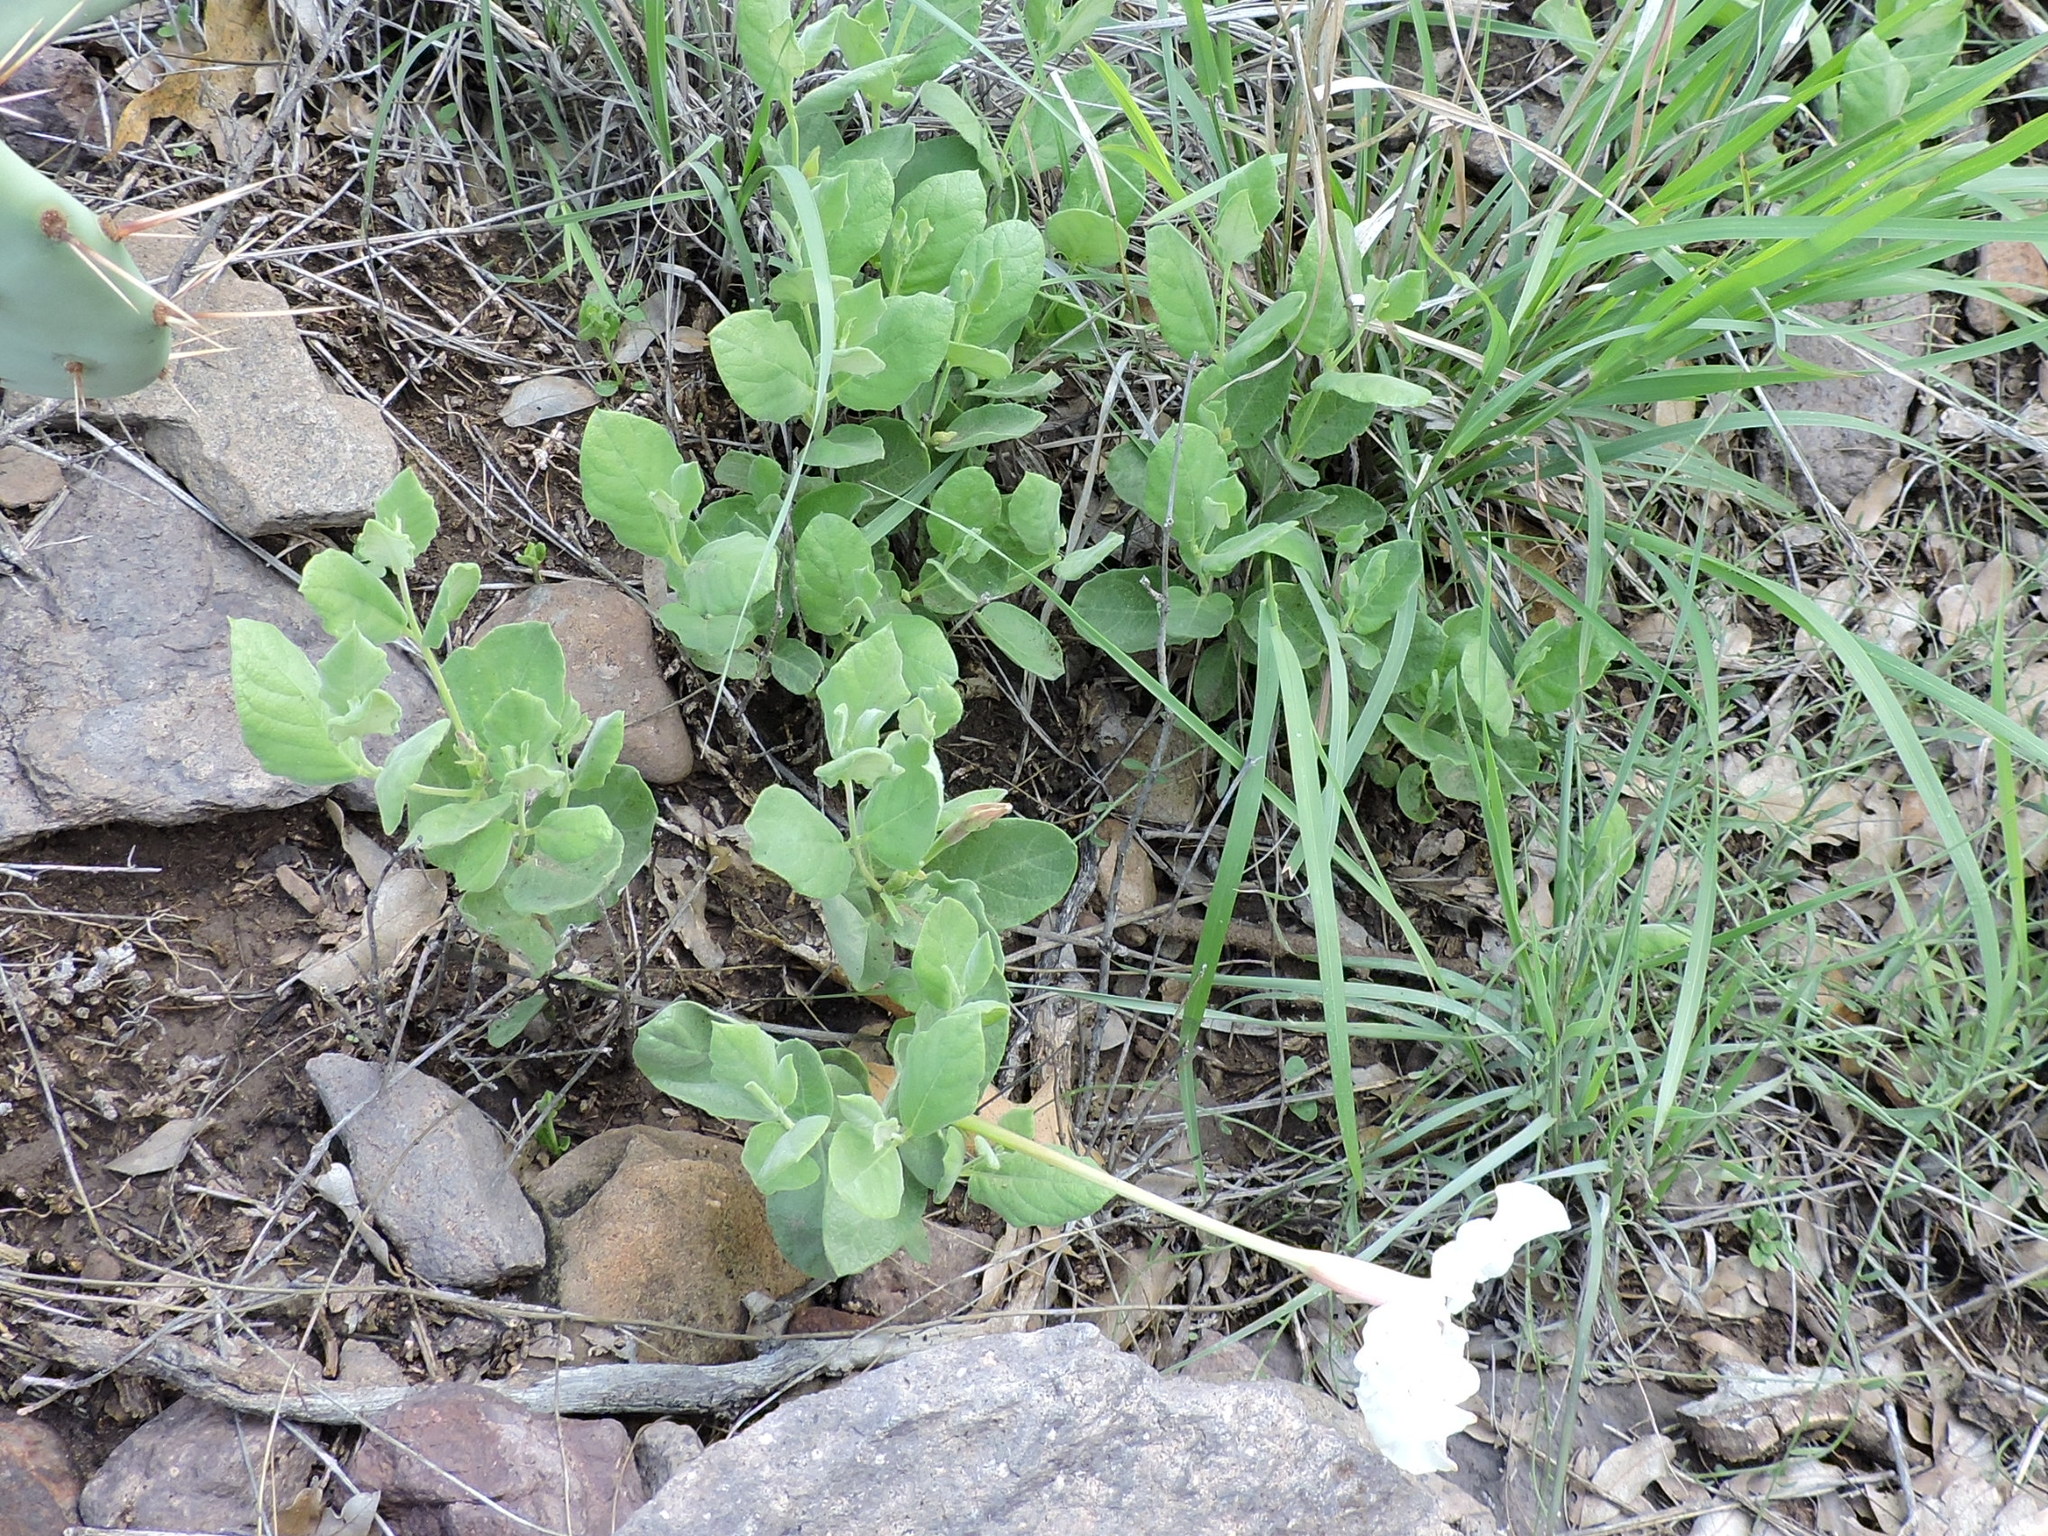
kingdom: Plantae
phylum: Tracheophyta
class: Magnoliopsida
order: Gentianales
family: Apocynaceae
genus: Mandevilla
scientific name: Mandevilla macrosiphon
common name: Plateau rocktrumpet
